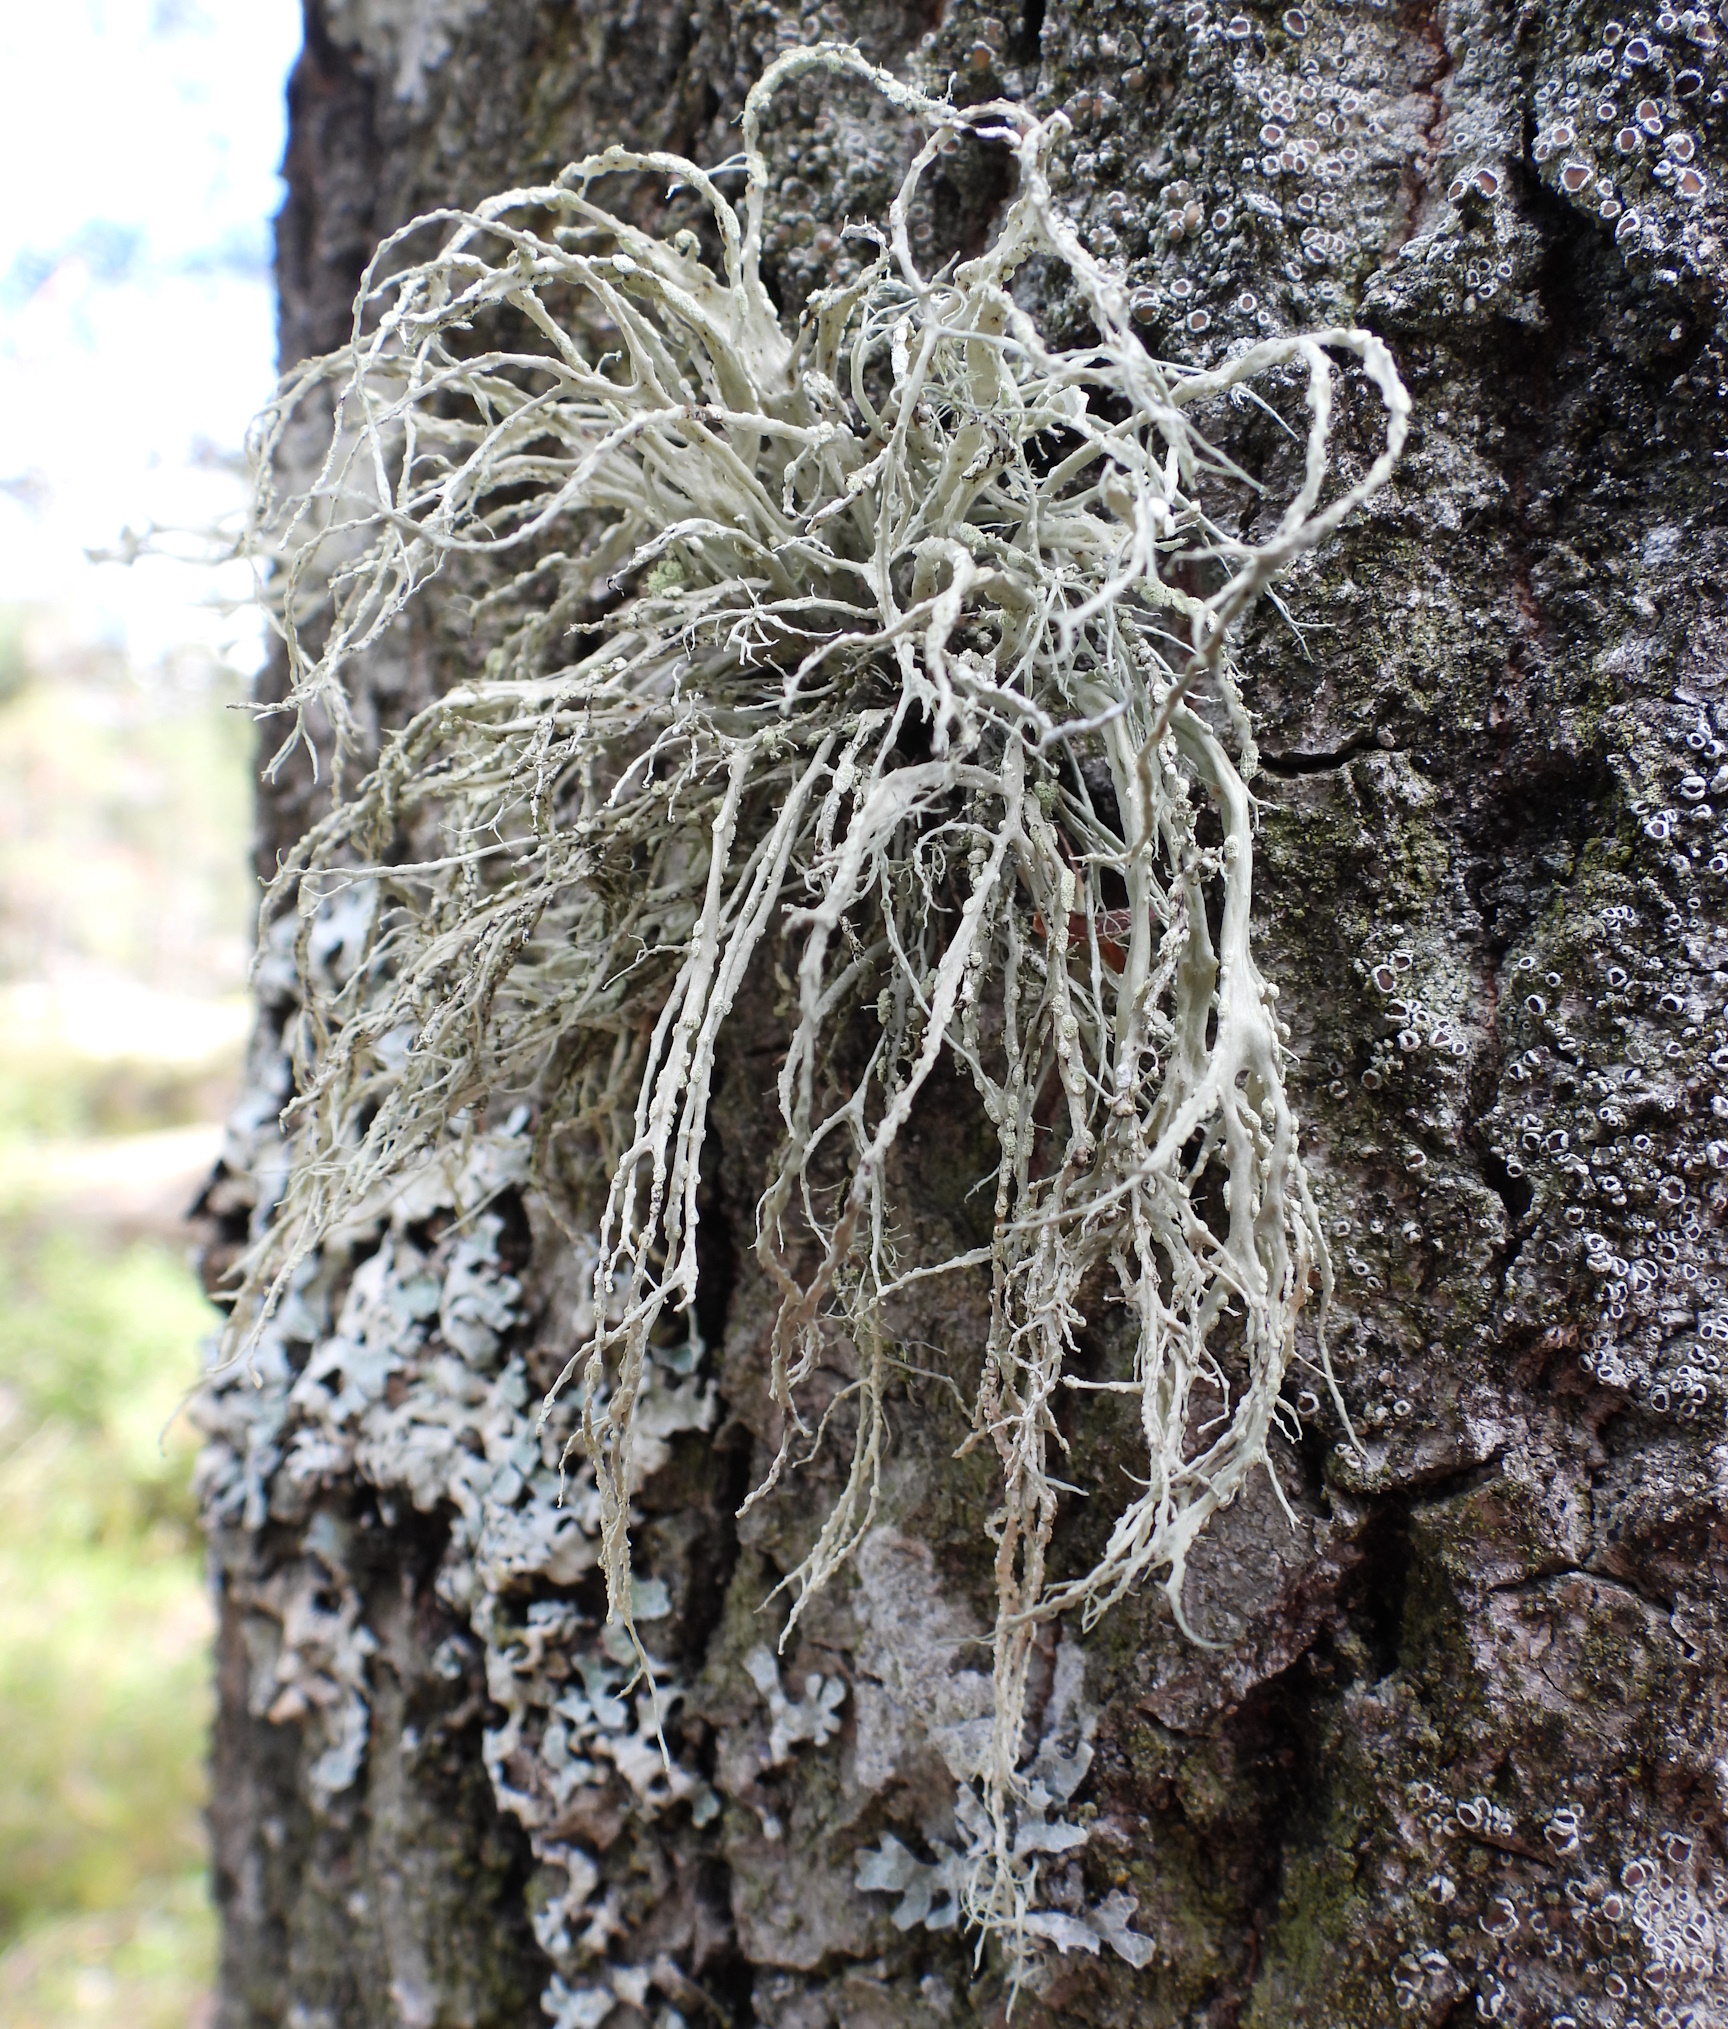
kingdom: Fungi
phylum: Ascomycota
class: Lecanoromycetes
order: Lecanorales
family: Ramalinaceae
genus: Ramalina
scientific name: Ramalina farinacea
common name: Farinose cartilage lichen
